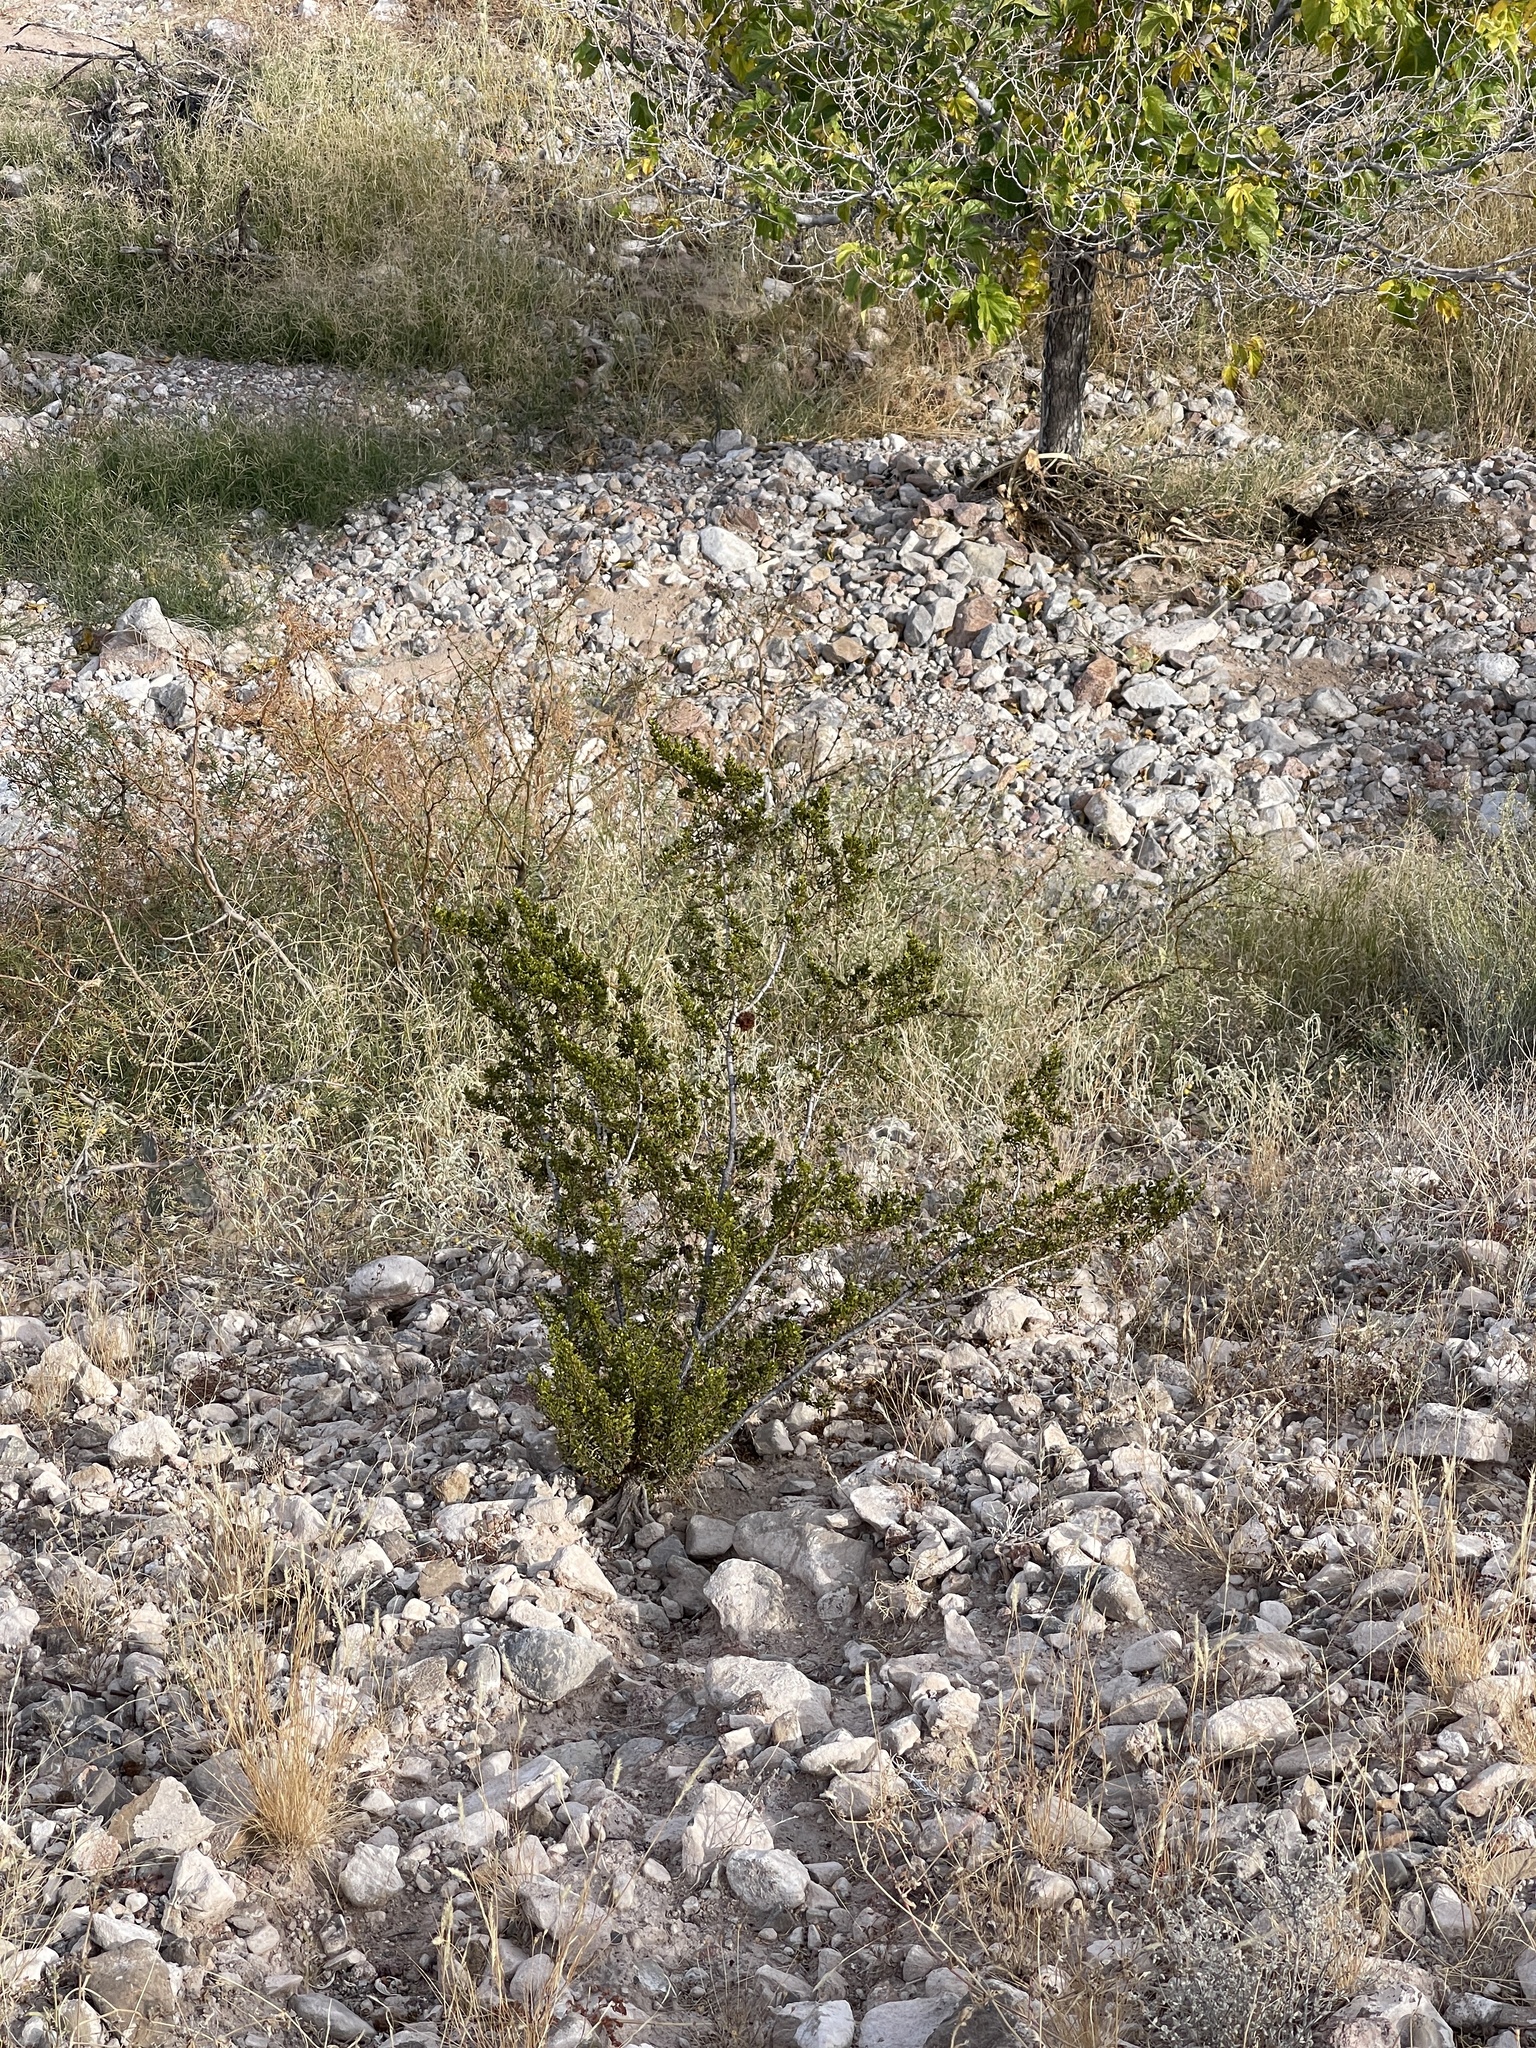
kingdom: Plantae
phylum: Tracheophyta
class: Magnoliopsida
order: Zygophyllales
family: Zygophyllaceae
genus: Larrea
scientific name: Larrea tridentata
